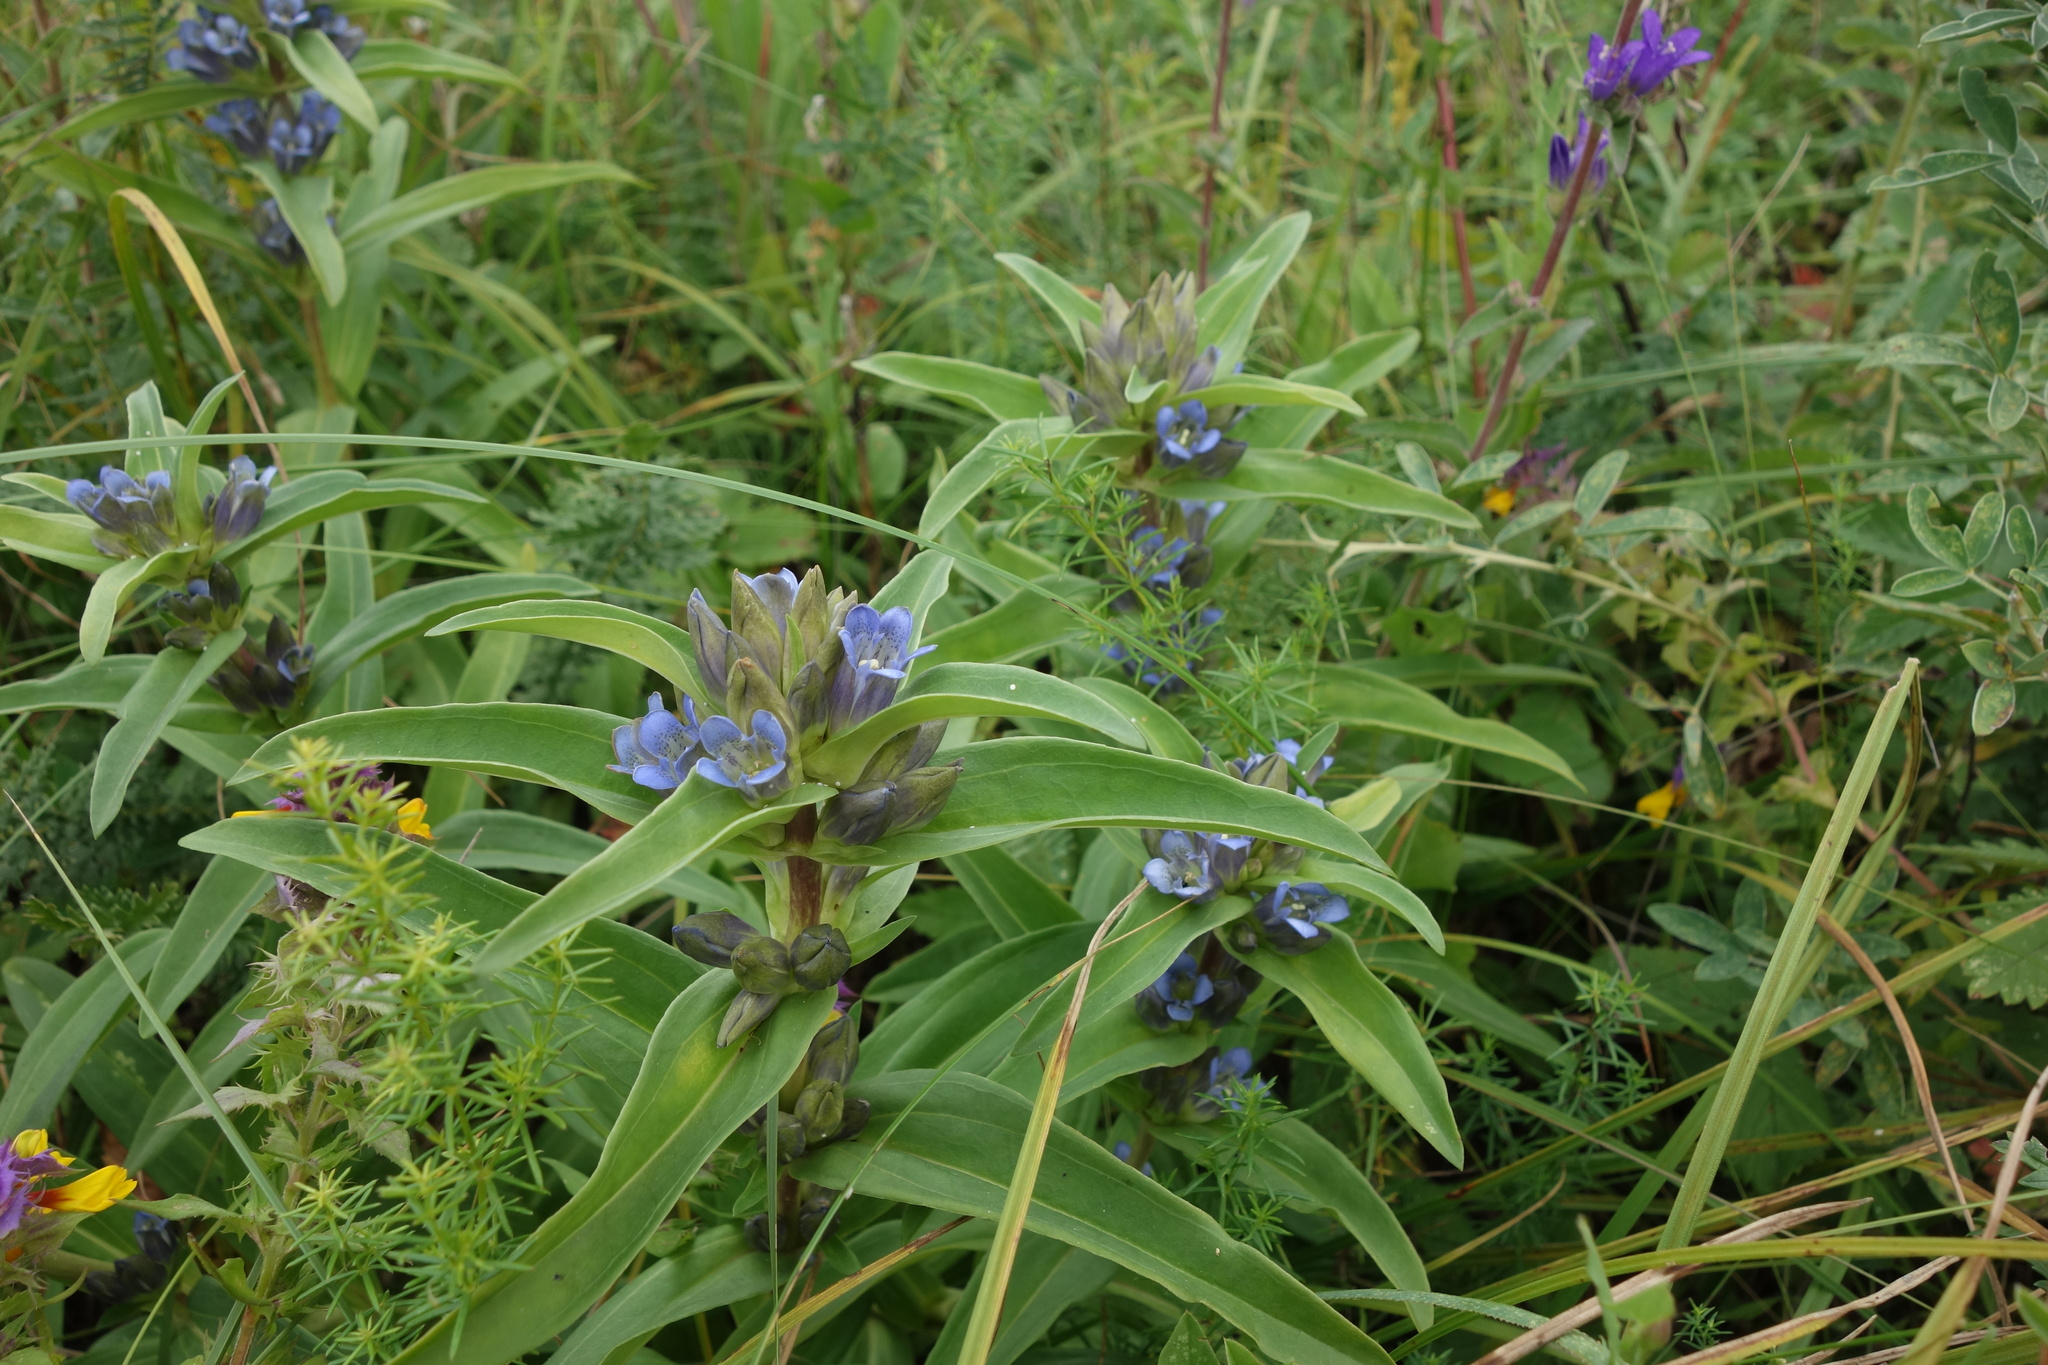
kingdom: Plantae
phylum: Tracheophyta
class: Magnoliopsida
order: Gentianales
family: Gentianaceae
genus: Gentiana
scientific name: Gentiana cruciata
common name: Cross gentian
